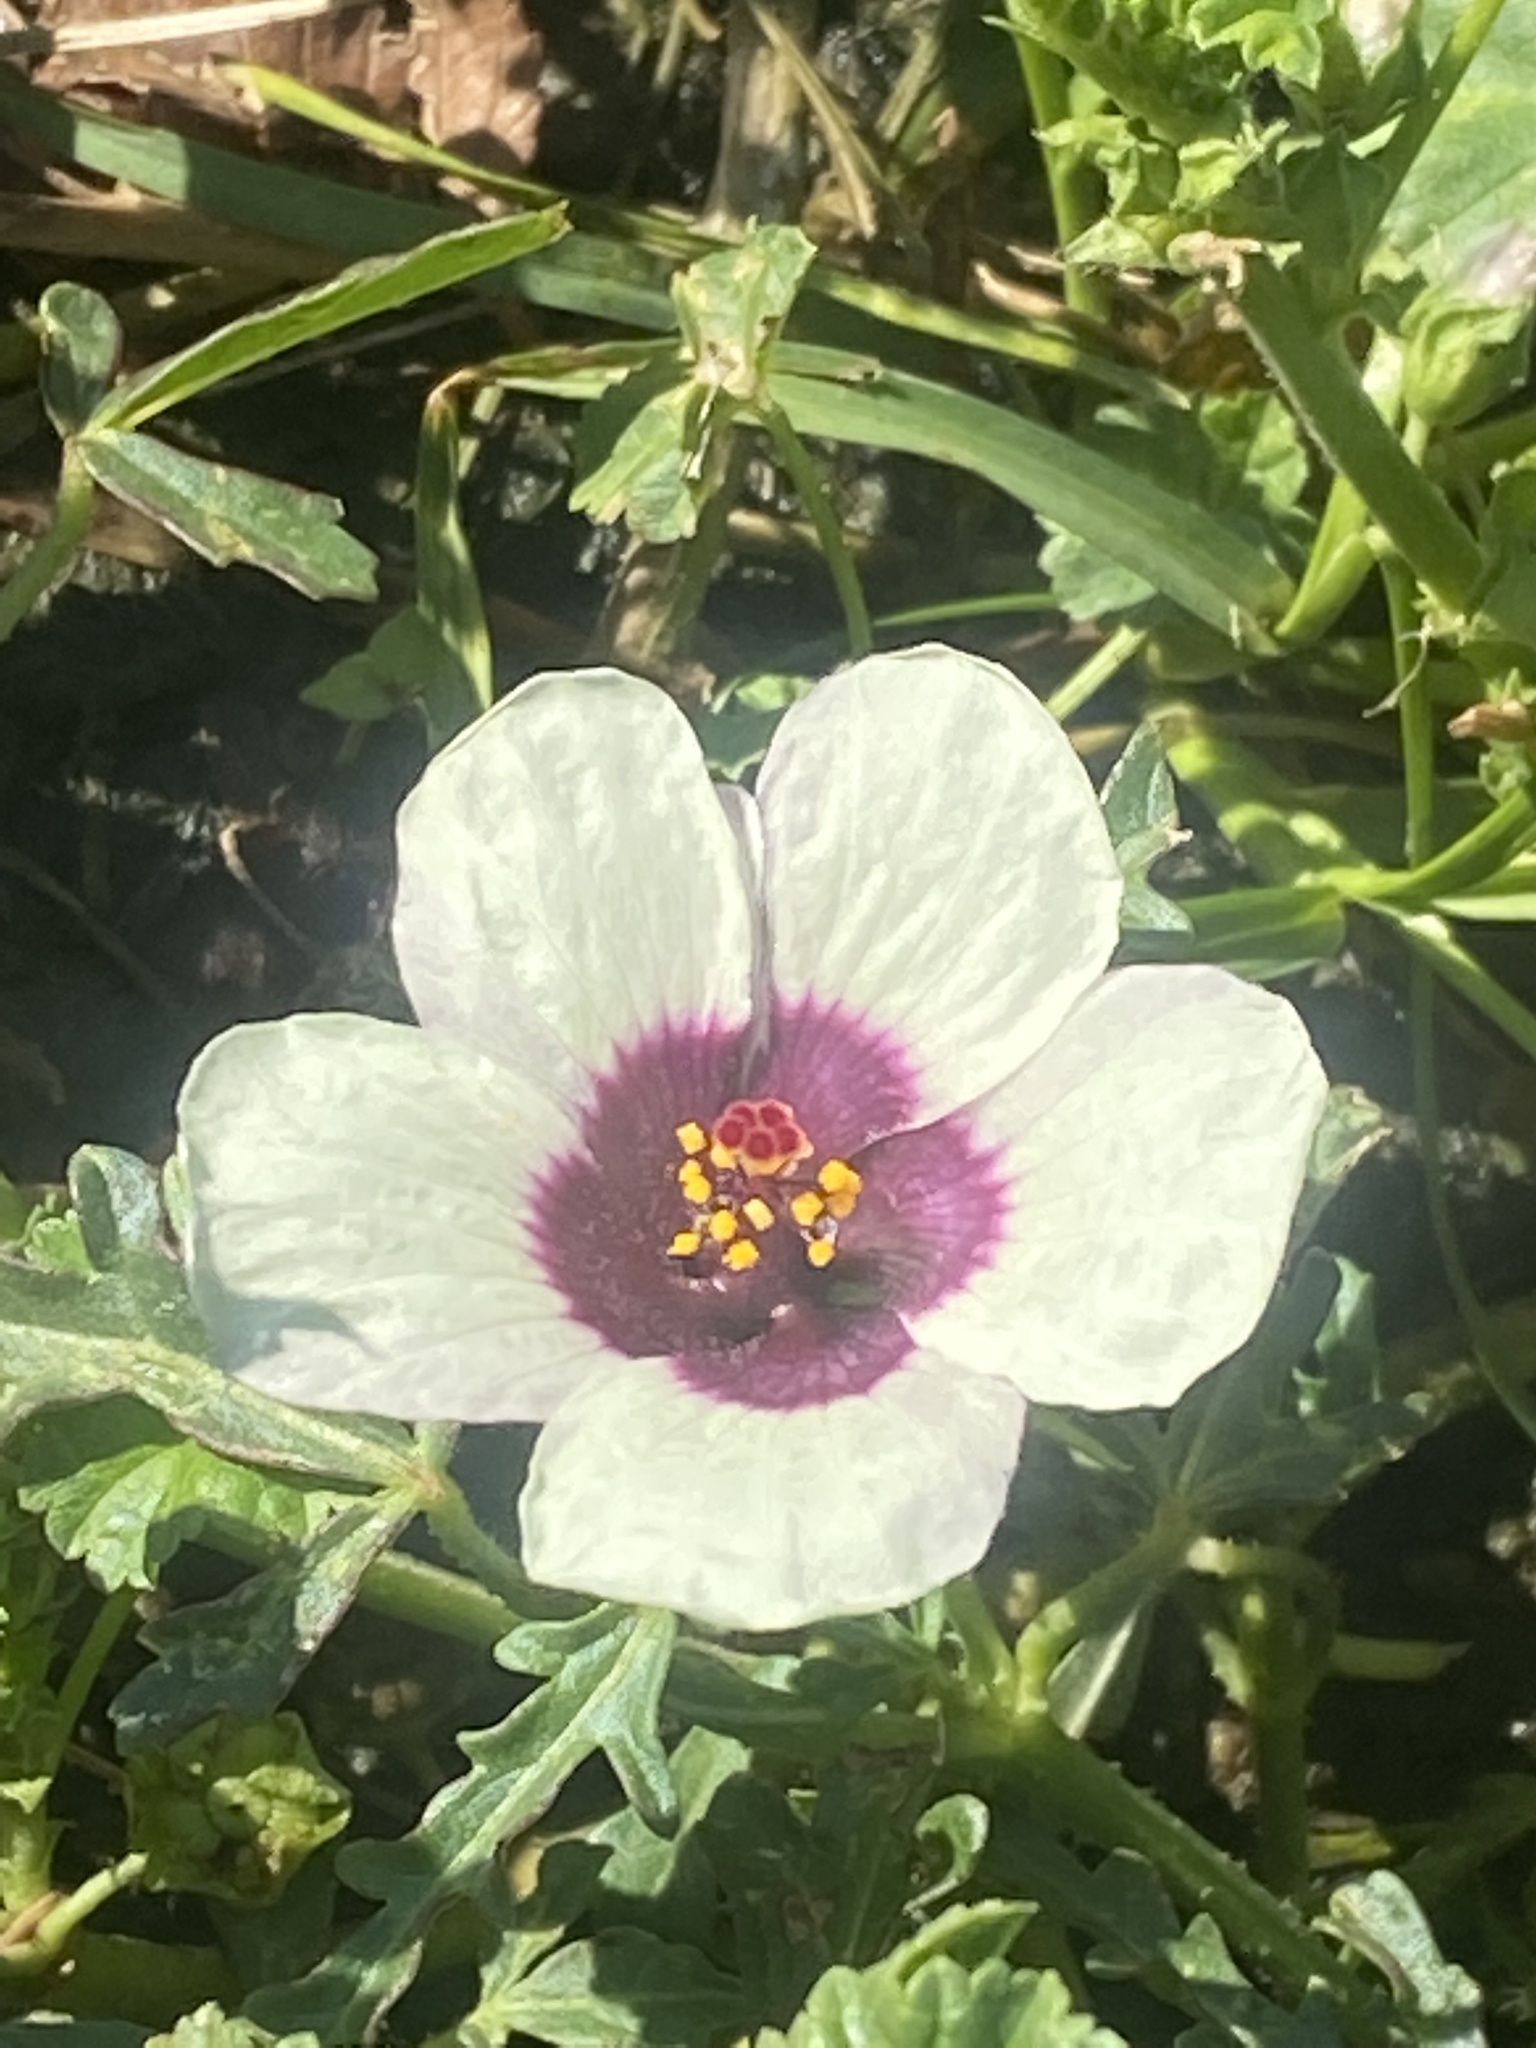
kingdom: Plantae
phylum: Tracheophyta
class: Magnoliopsida
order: Malvales
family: Malvaceae
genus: Hibiscus
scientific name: Hibiscus trionum
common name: Bladder ketmia
